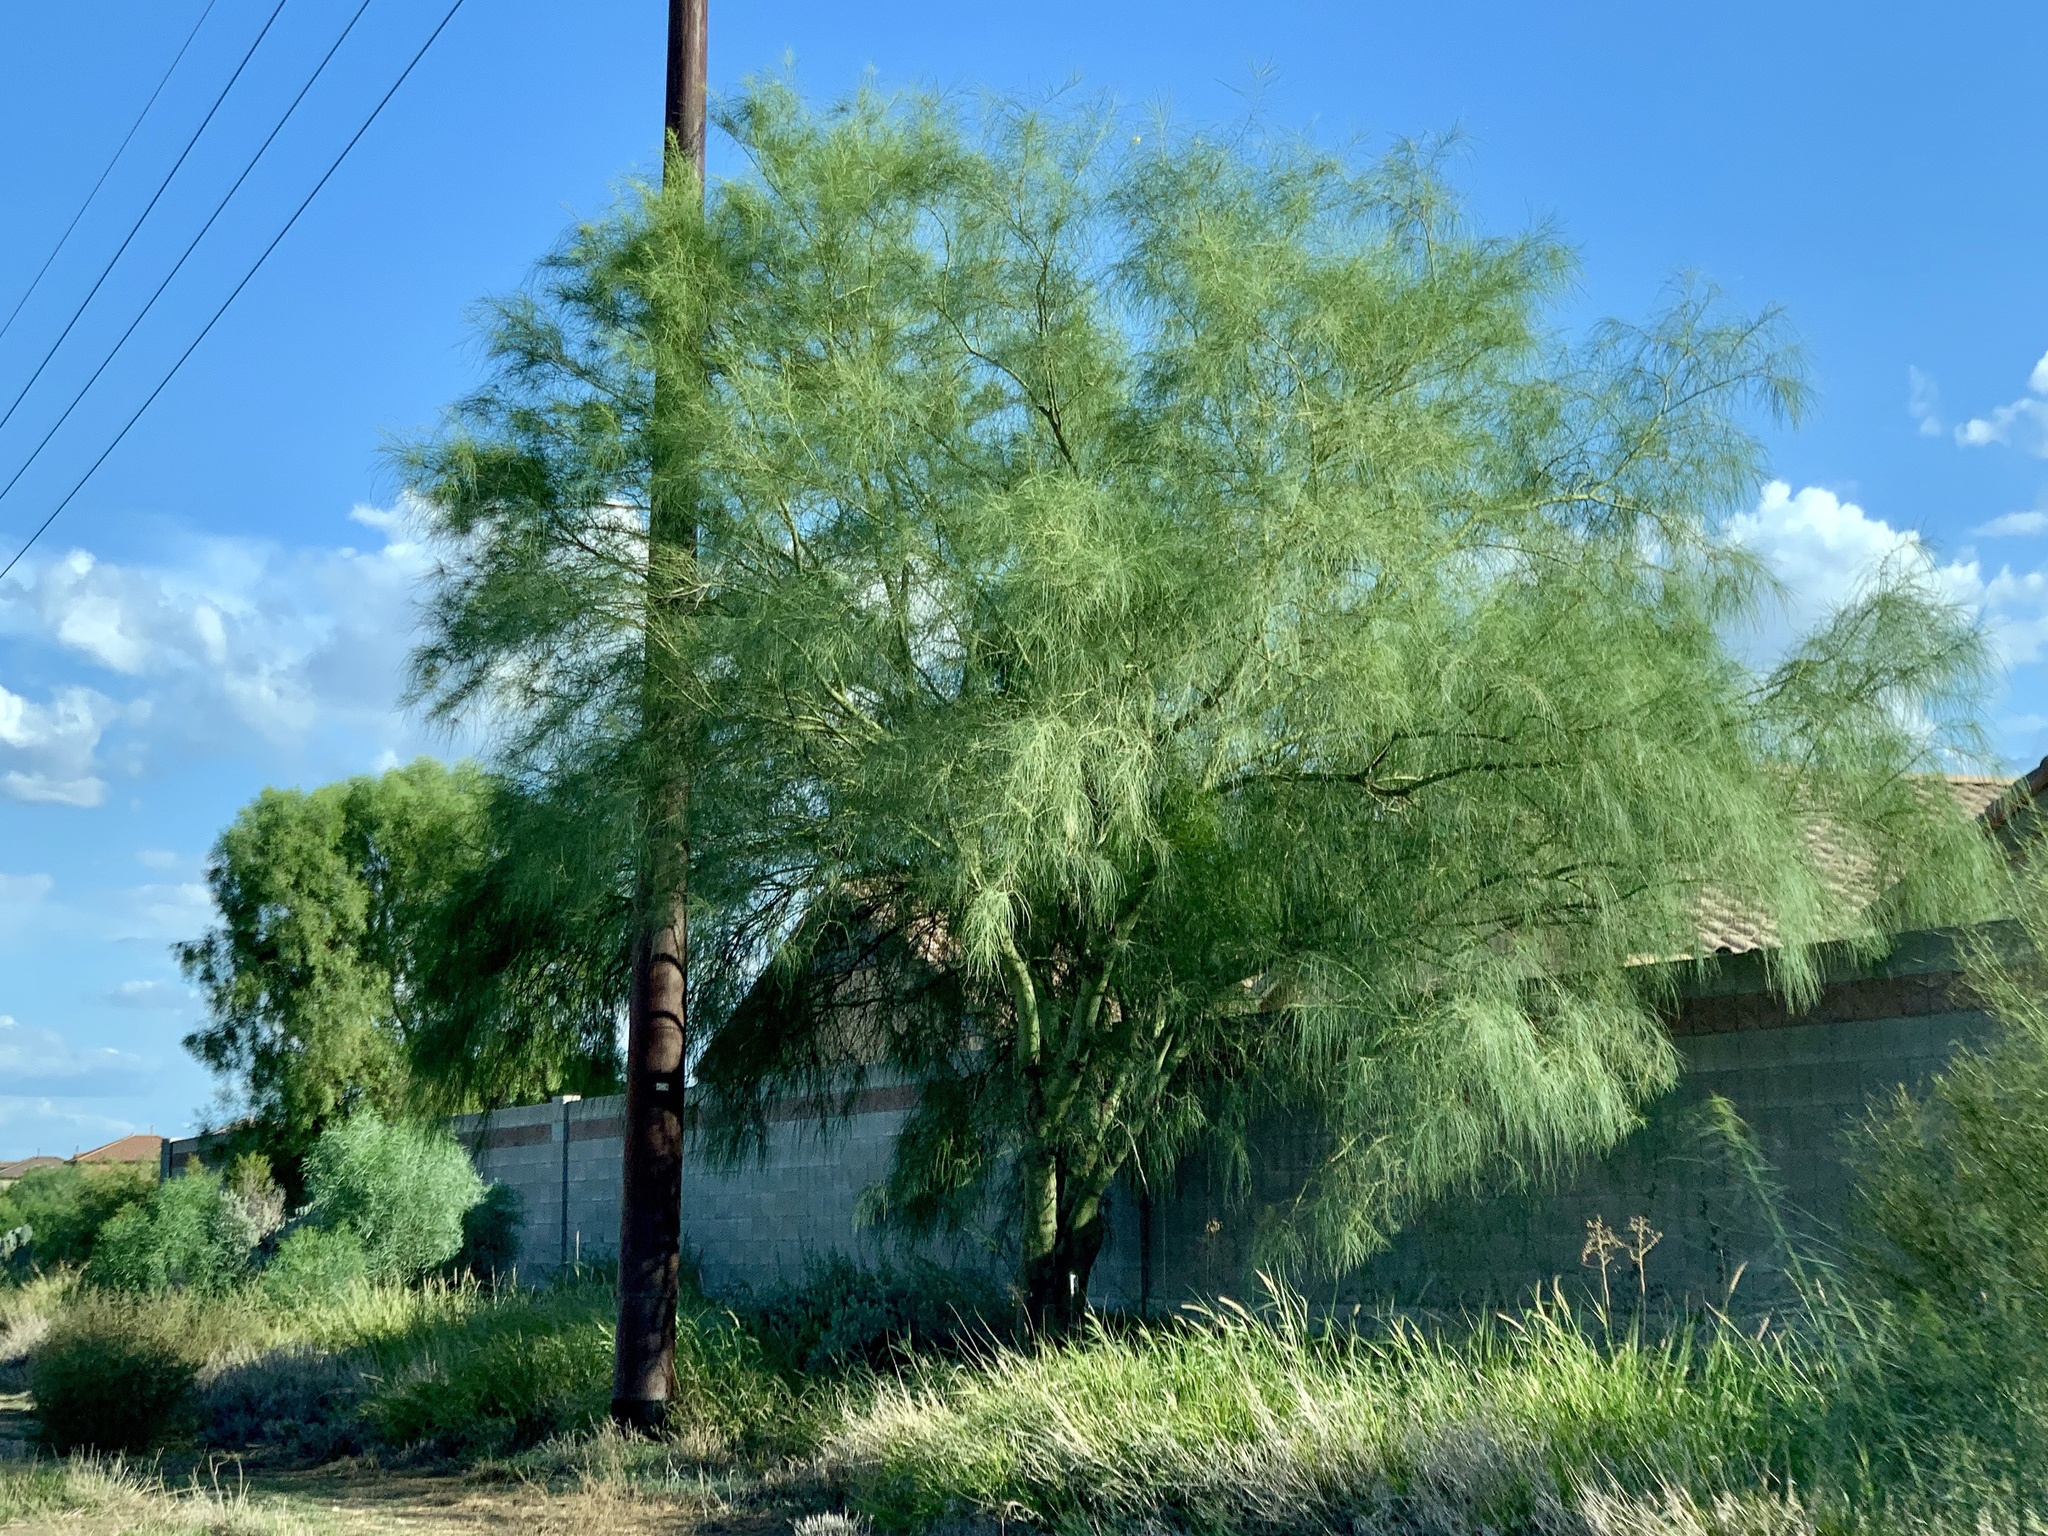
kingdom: Plantae
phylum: Tracheophyta
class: Magnoliopsida
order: Fabales
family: Fabaceae
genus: Parkinsonia
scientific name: Parkinsonia aculeata
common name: Jerusalem thorn
